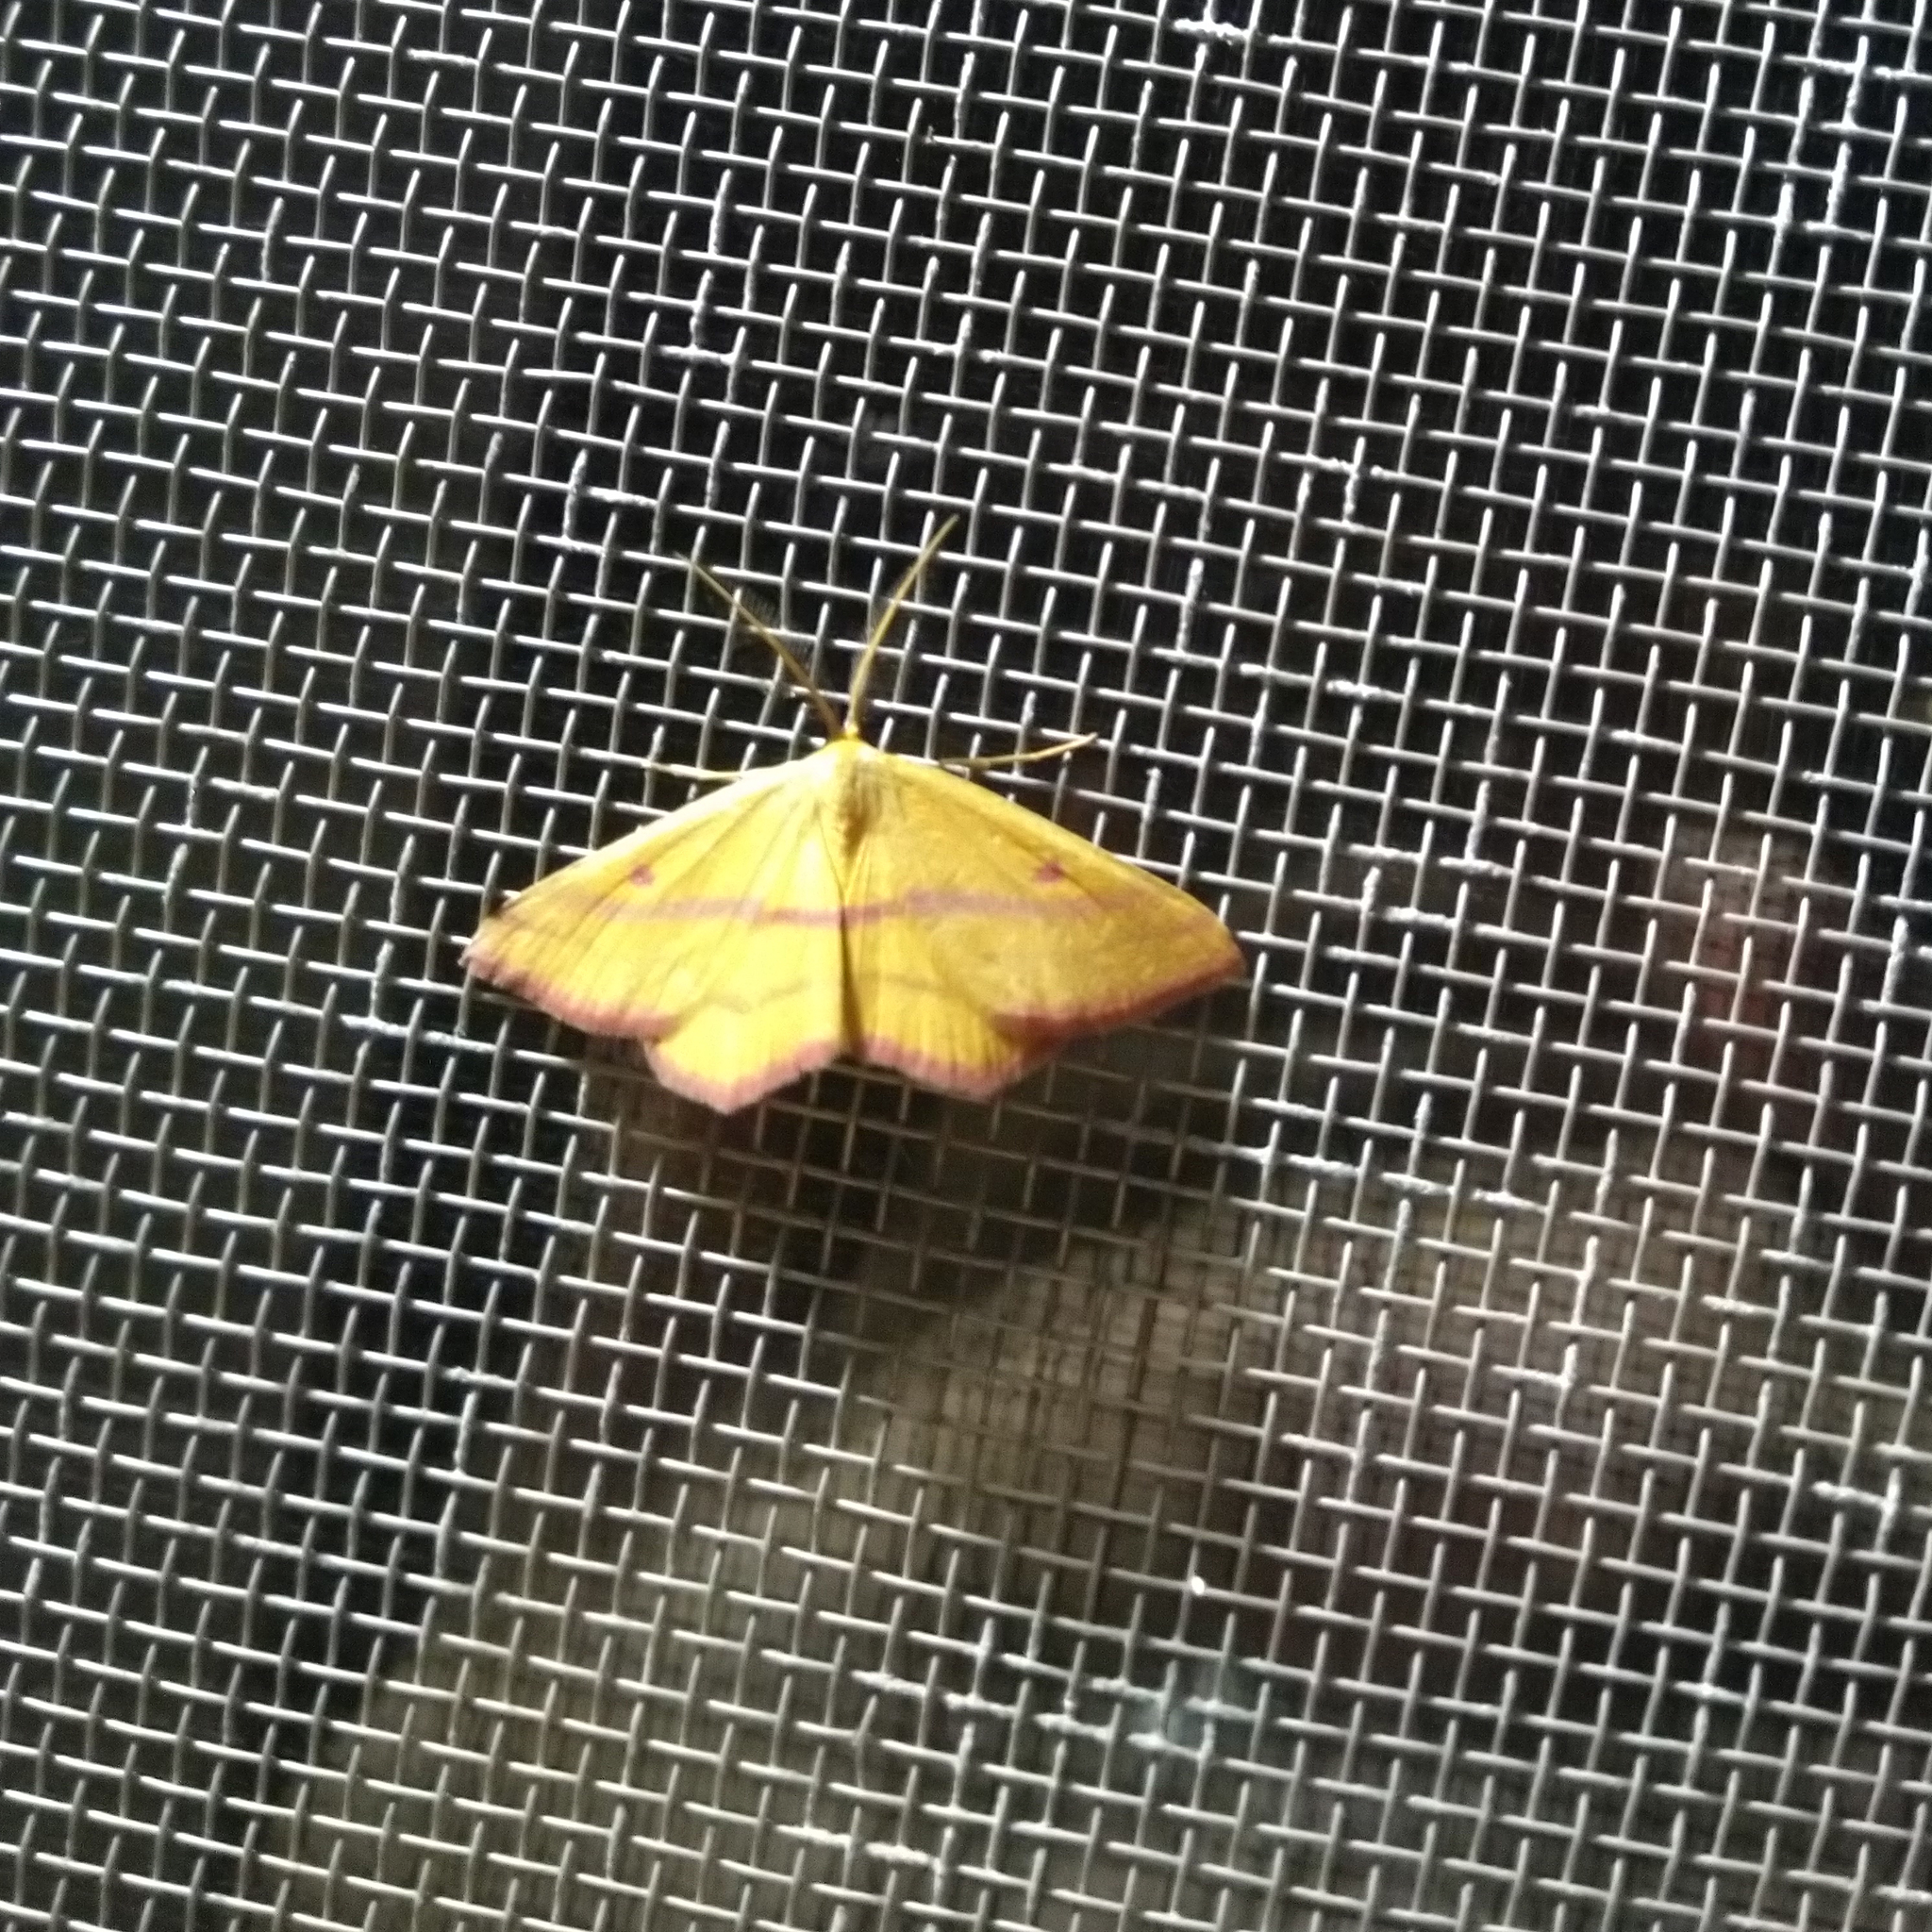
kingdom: Animalia
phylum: Arthropoda
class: Insecta
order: Lepidoptera
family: Geometridae
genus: Haematopis
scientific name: Haematopis grataria
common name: Chickweed geometer
